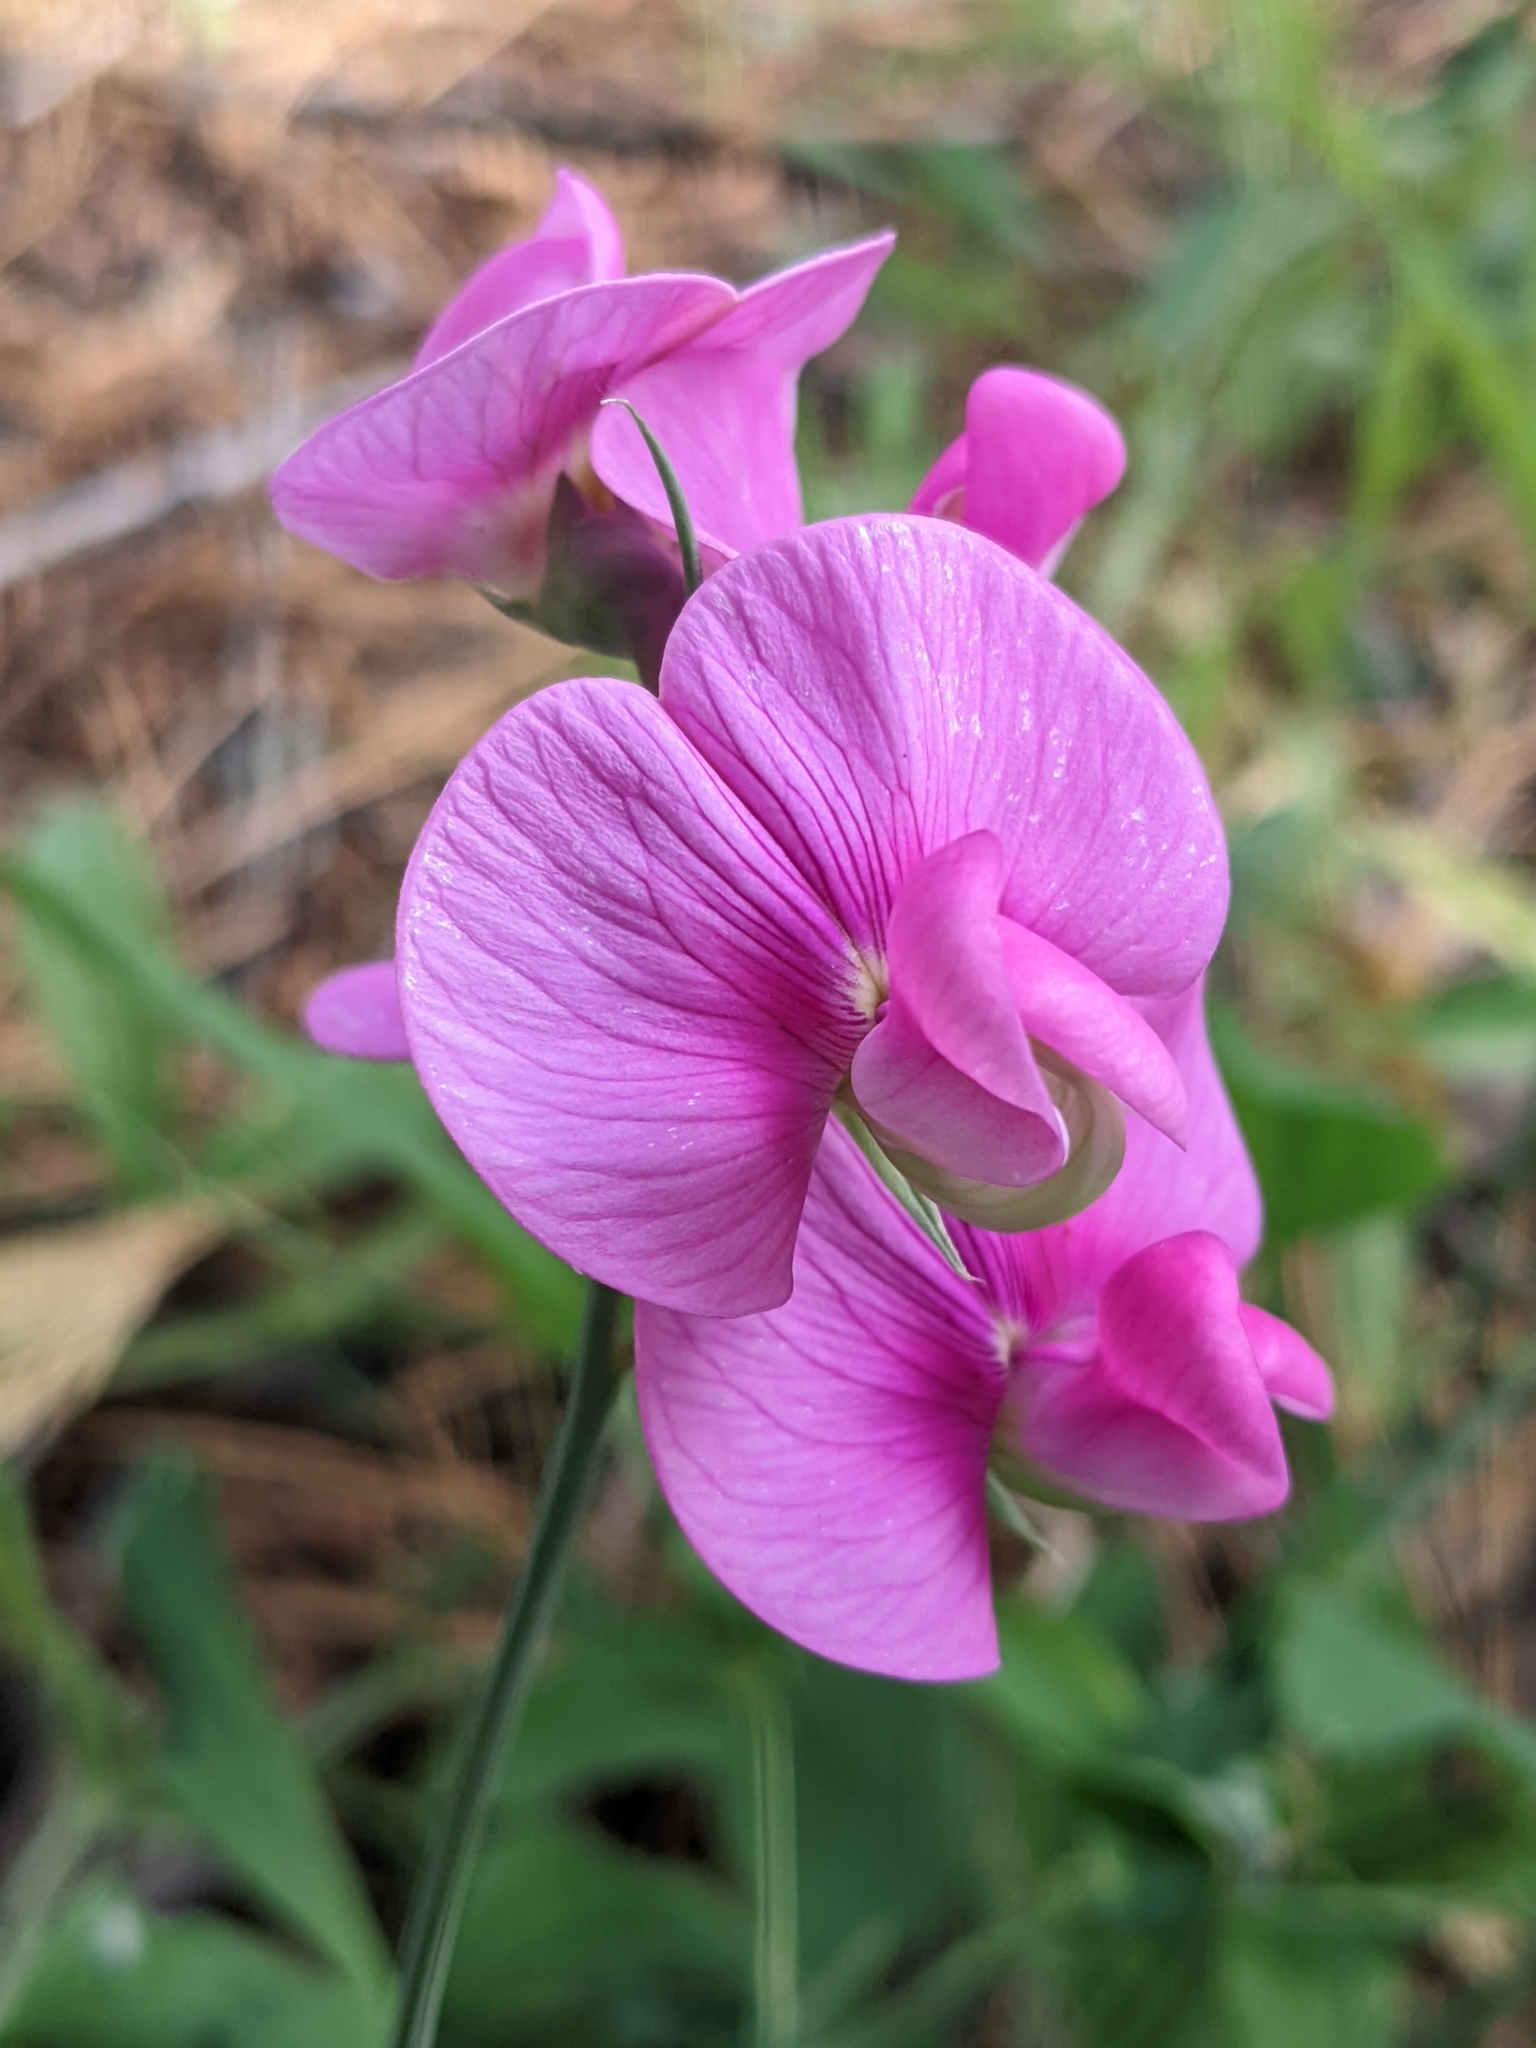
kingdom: Plantae
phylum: Tracheophyta
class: Magnoliopsida
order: Fabales
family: Fabaceae
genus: Lathyrus
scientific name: Lathyrus latifolius
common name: Perennial pea
